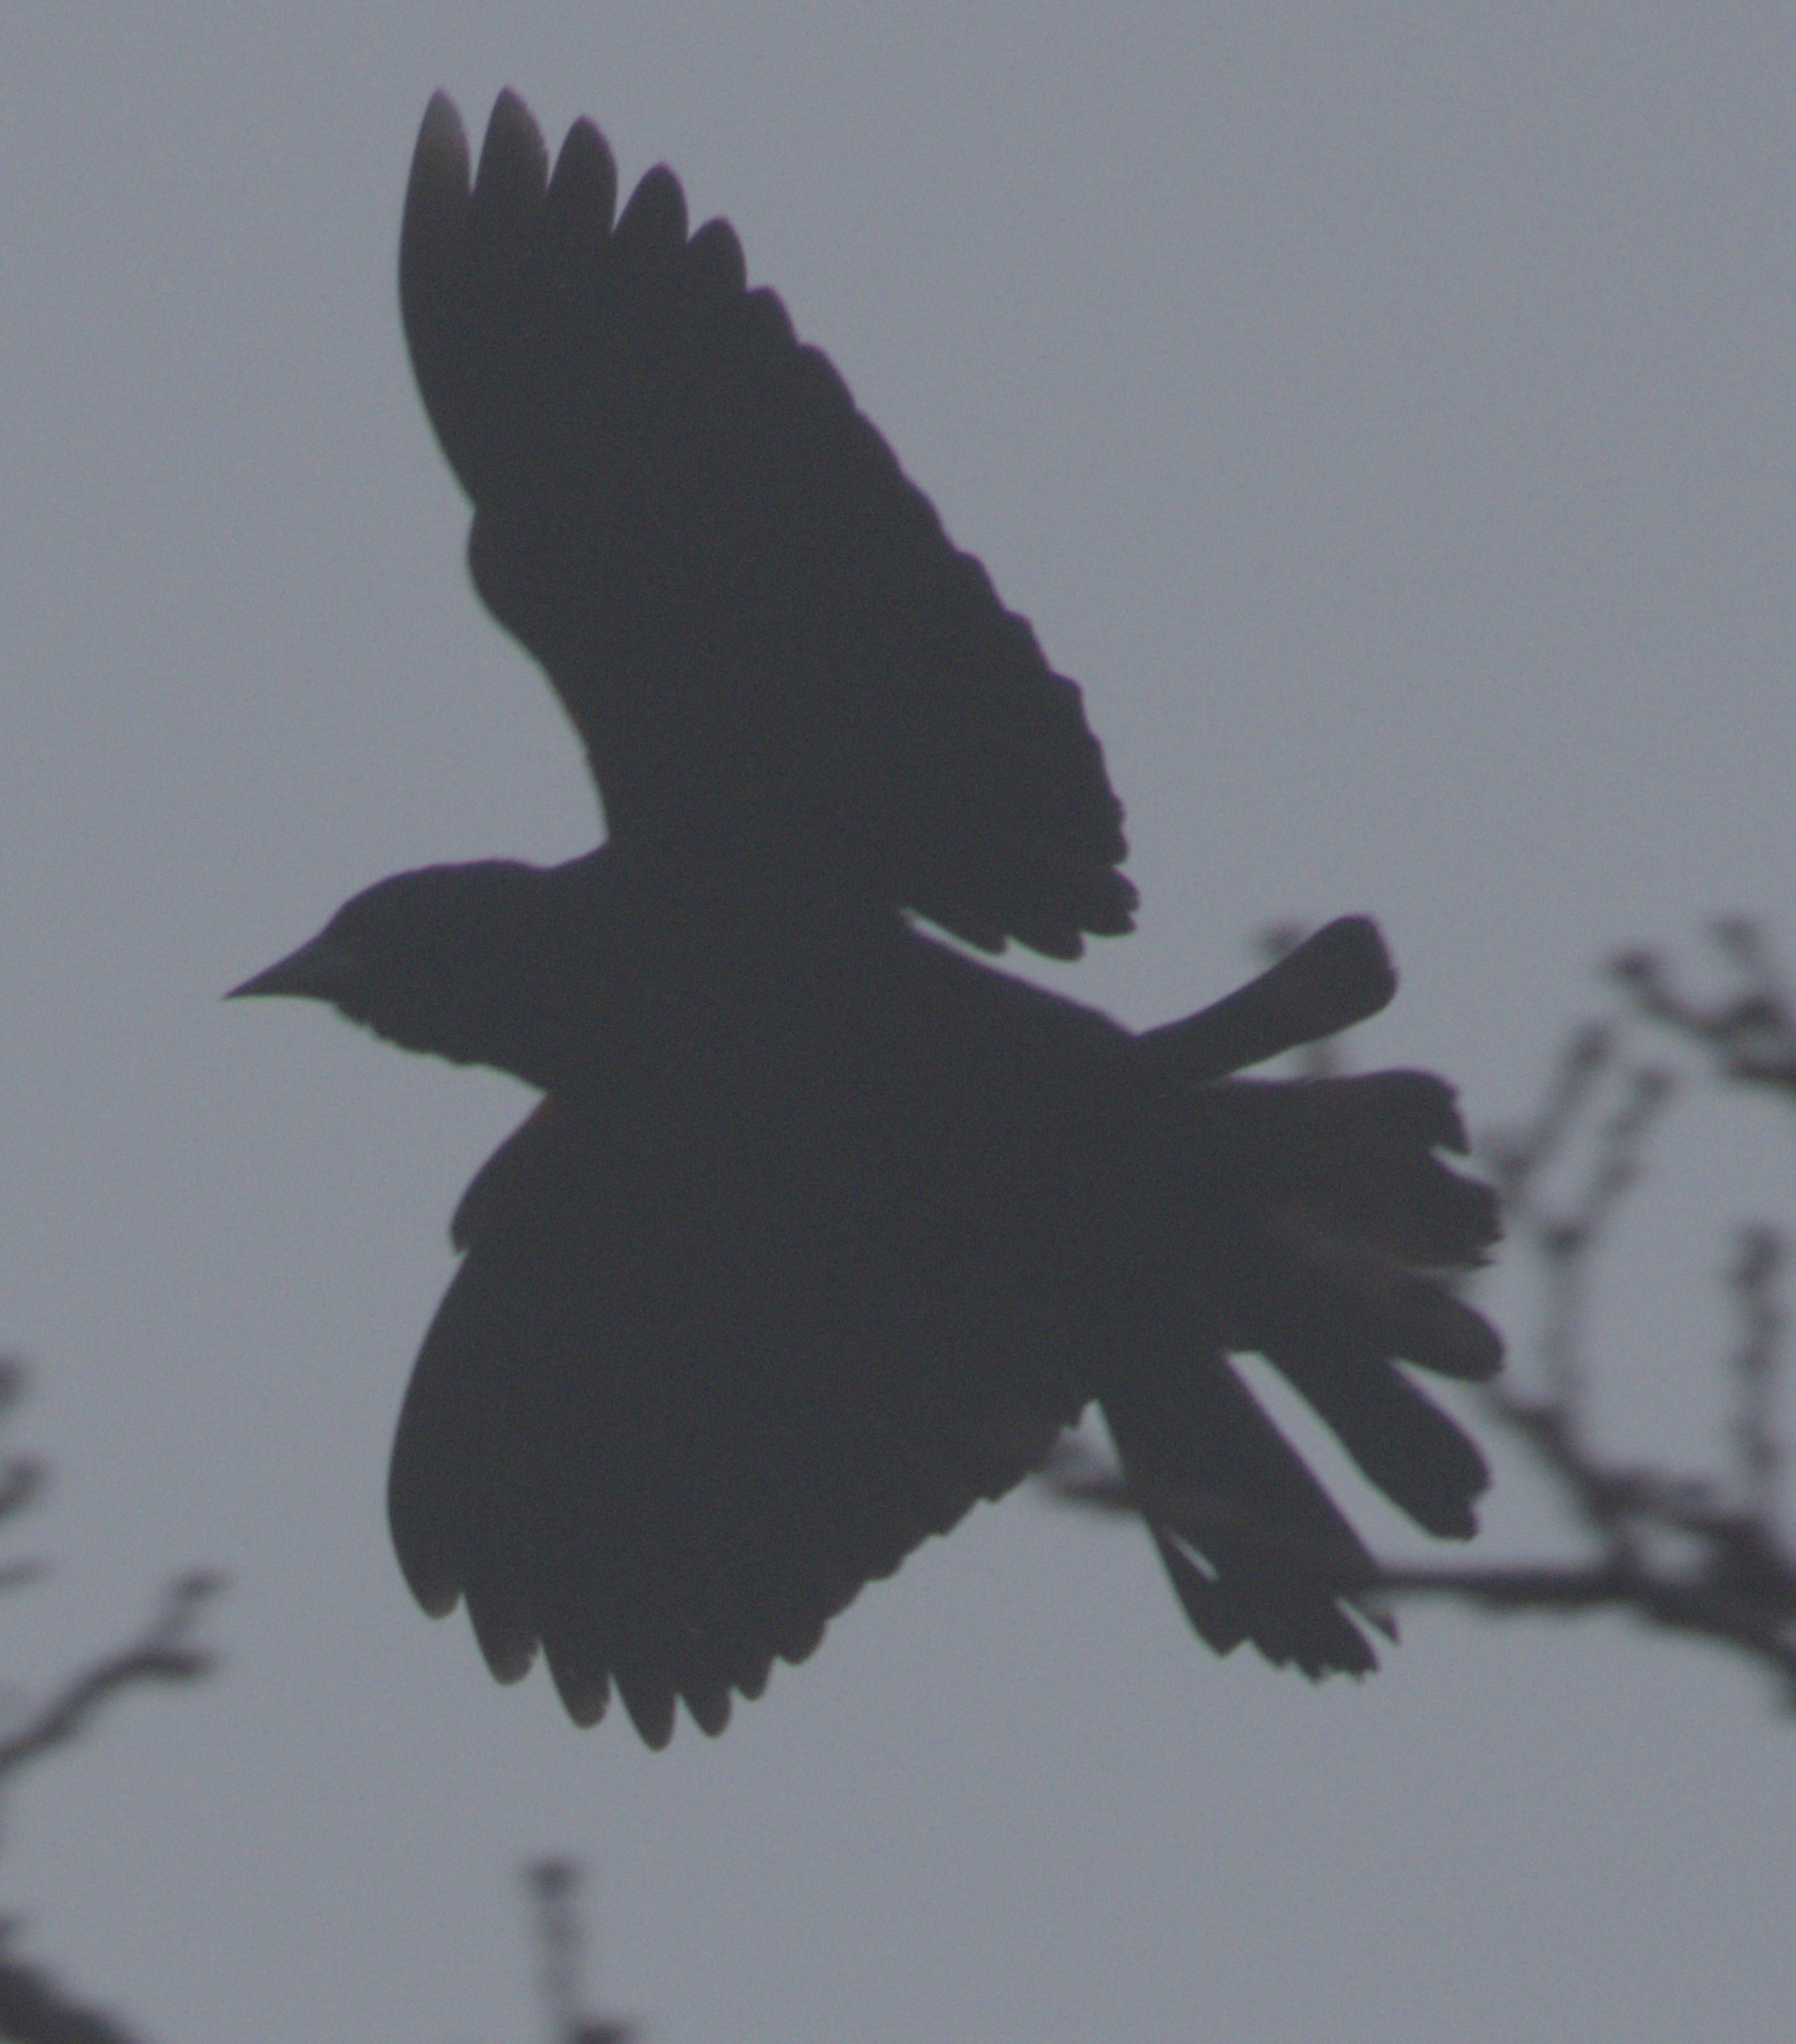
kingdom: Animalia
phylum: Chordata
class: Aves
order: Passeriformes
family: Corvidae
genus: Corvus
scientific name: Corvus brachyrhynchos
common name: American crow
